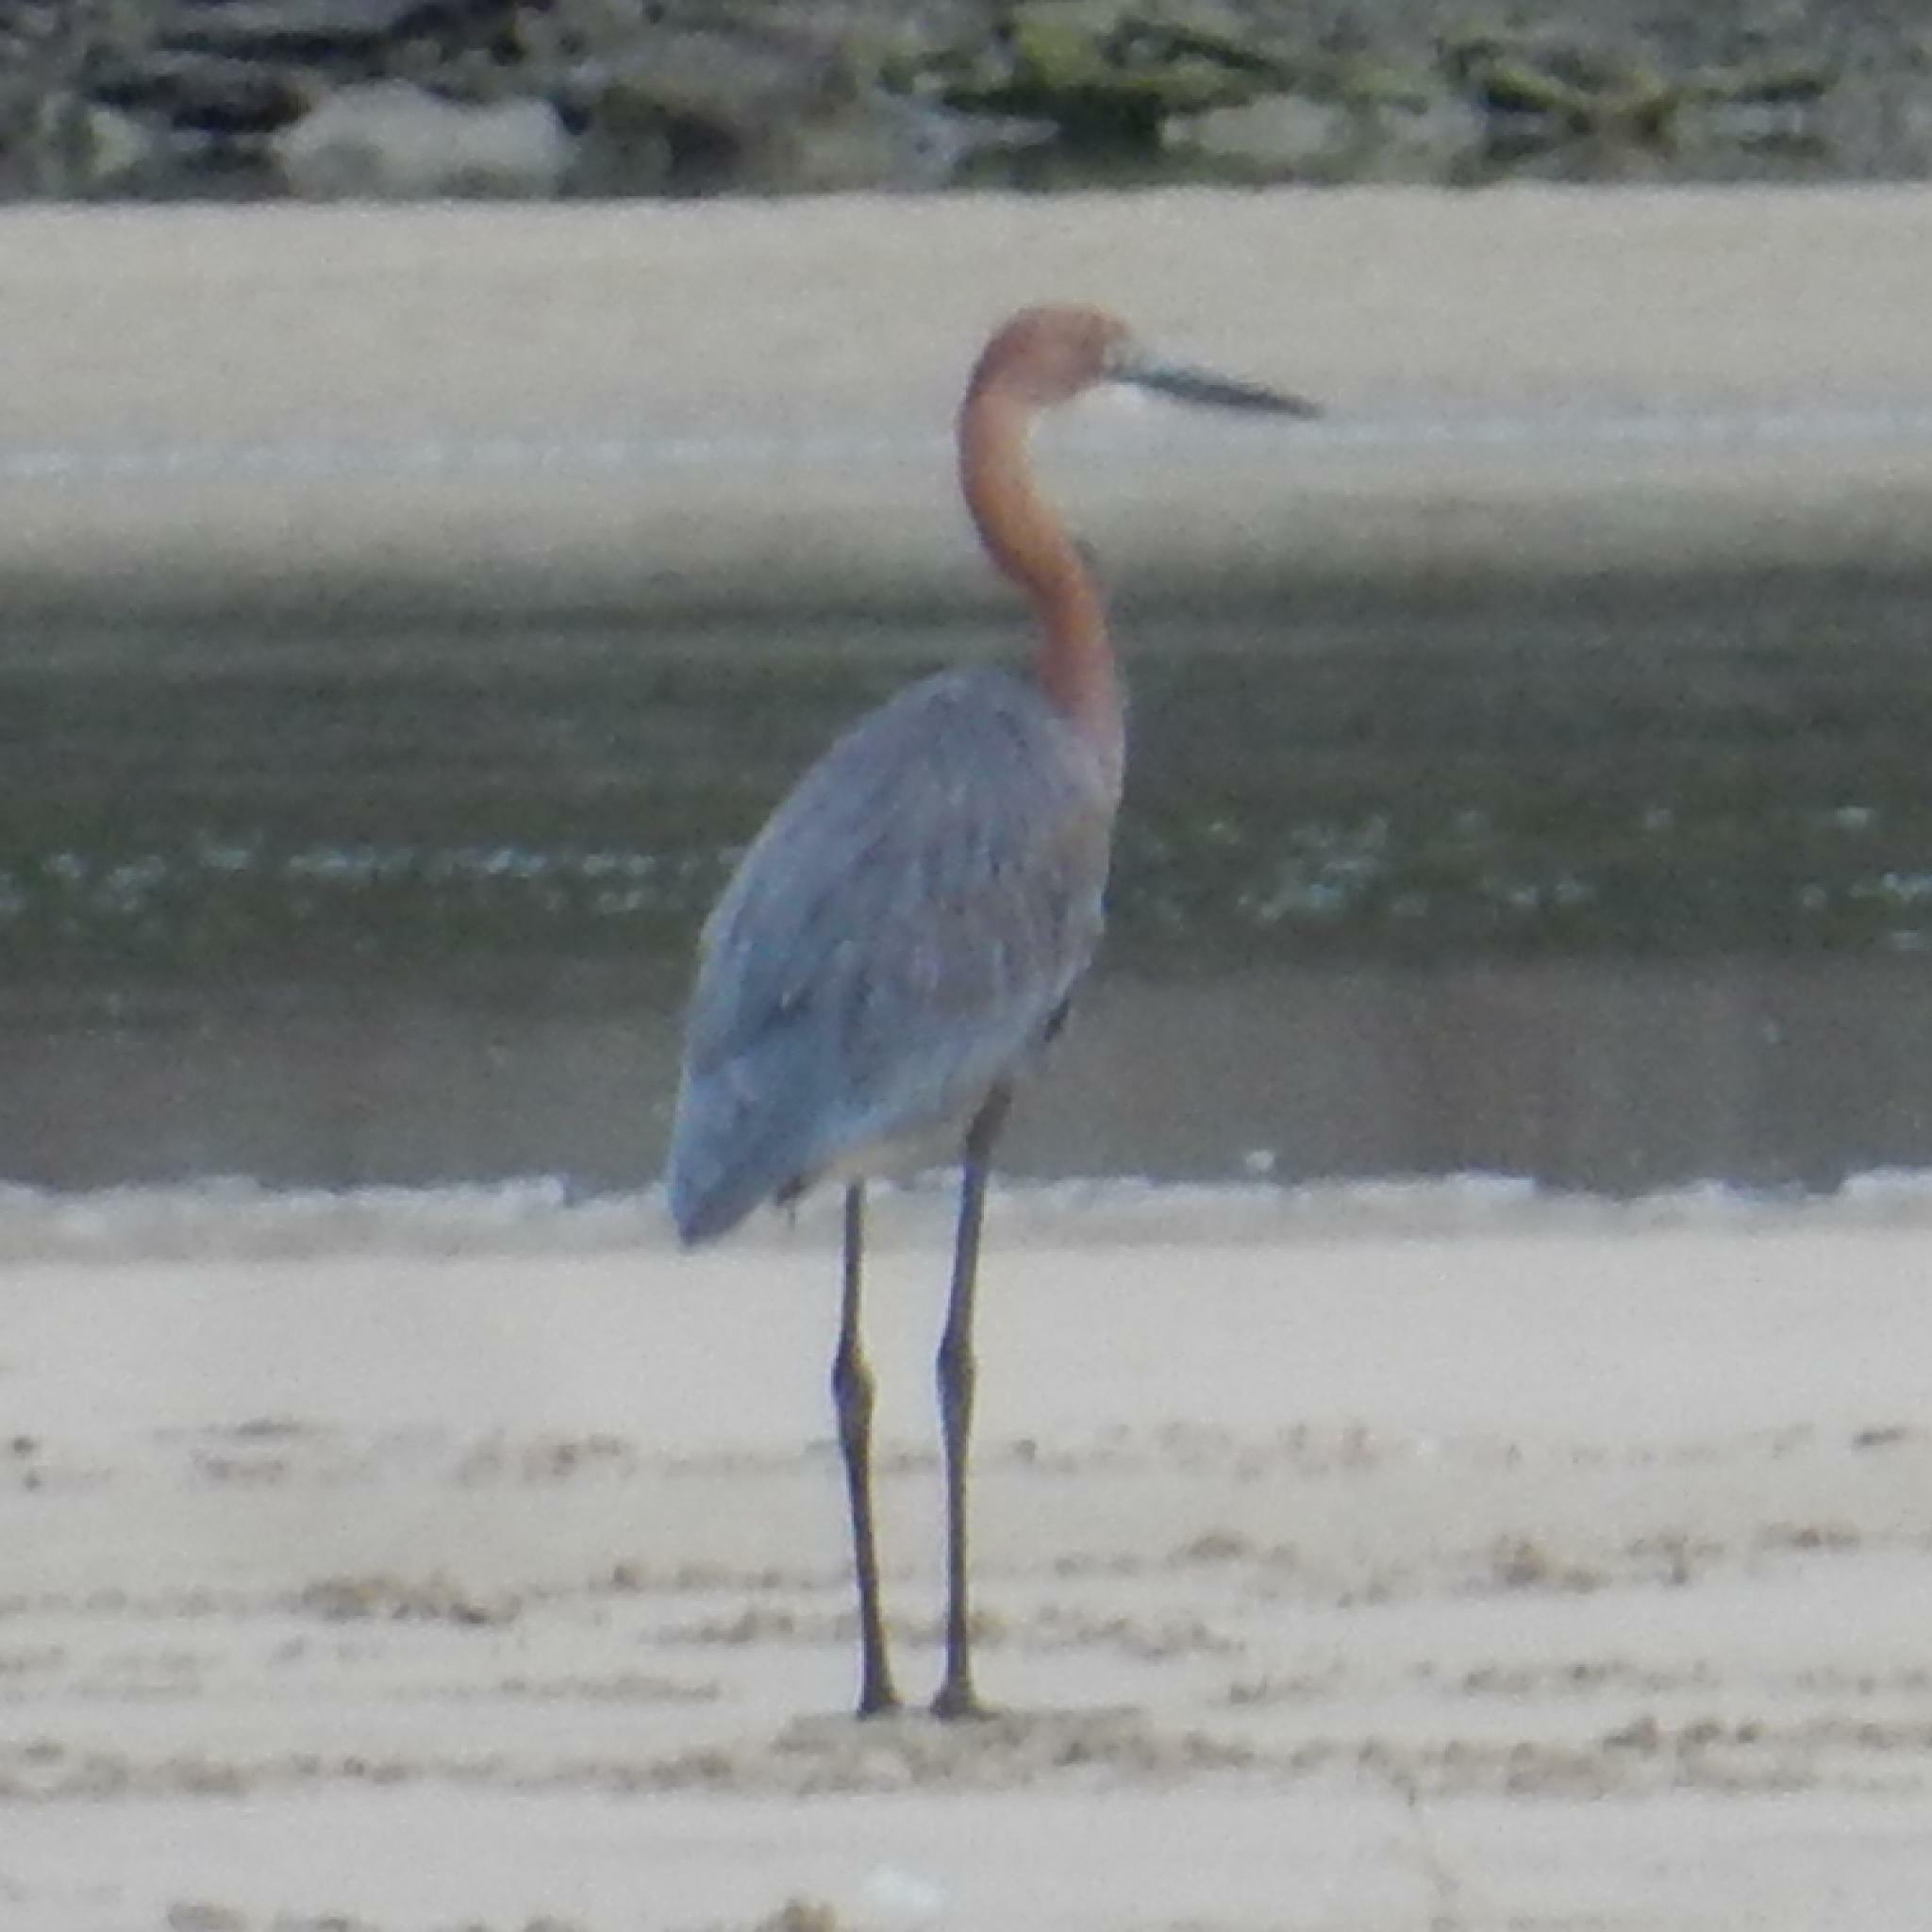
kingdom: Animalia
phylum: Chordata
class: Aves
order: Pelecaniformes
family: Ardeidae
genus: Ardea
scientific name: Ardea goliath
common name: Goliath heron
